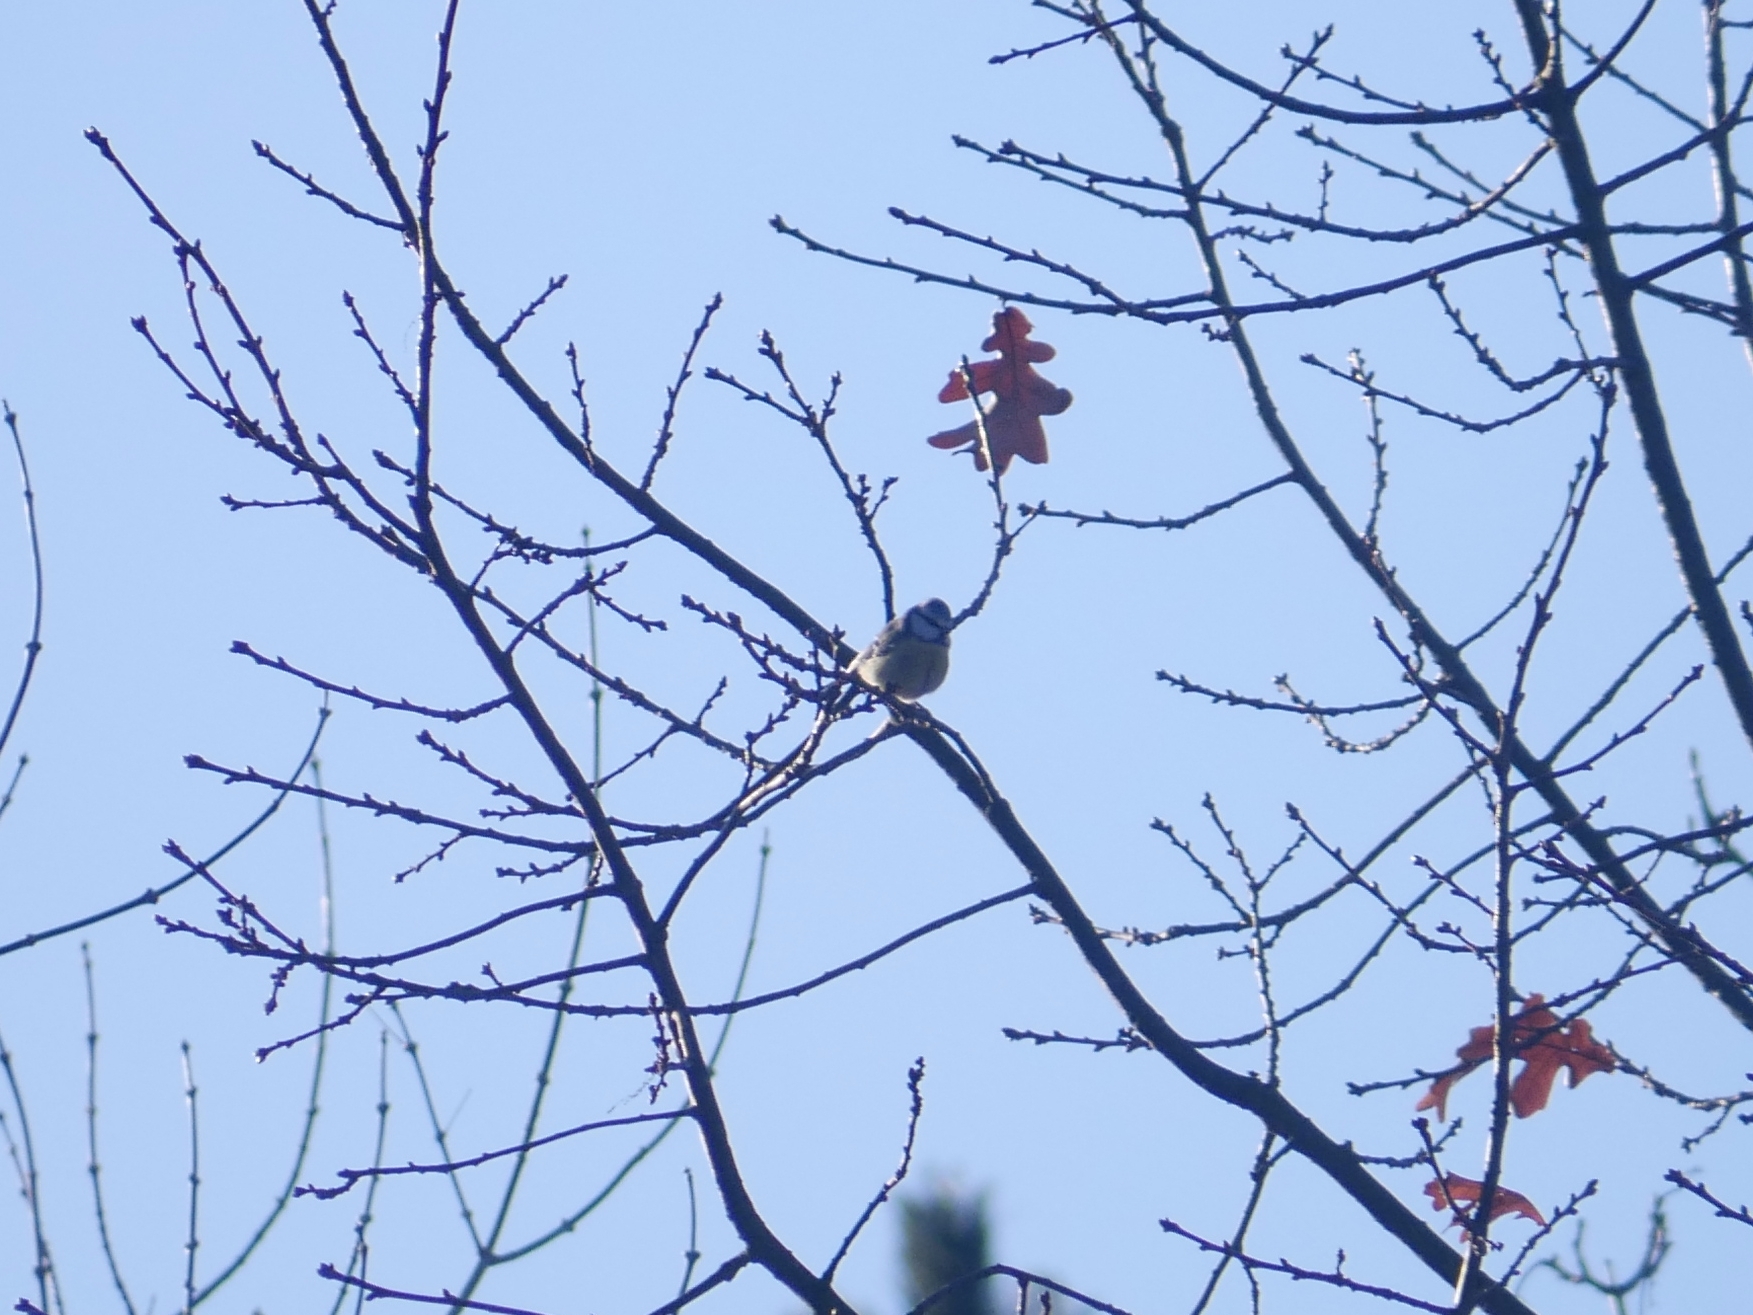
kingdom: Animalia
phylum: Chordata
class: Aves
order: Passeriformes
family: Paridae
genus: Cyanistes
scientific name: Cyanistes caeruleus
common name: Eurasian blue tit
